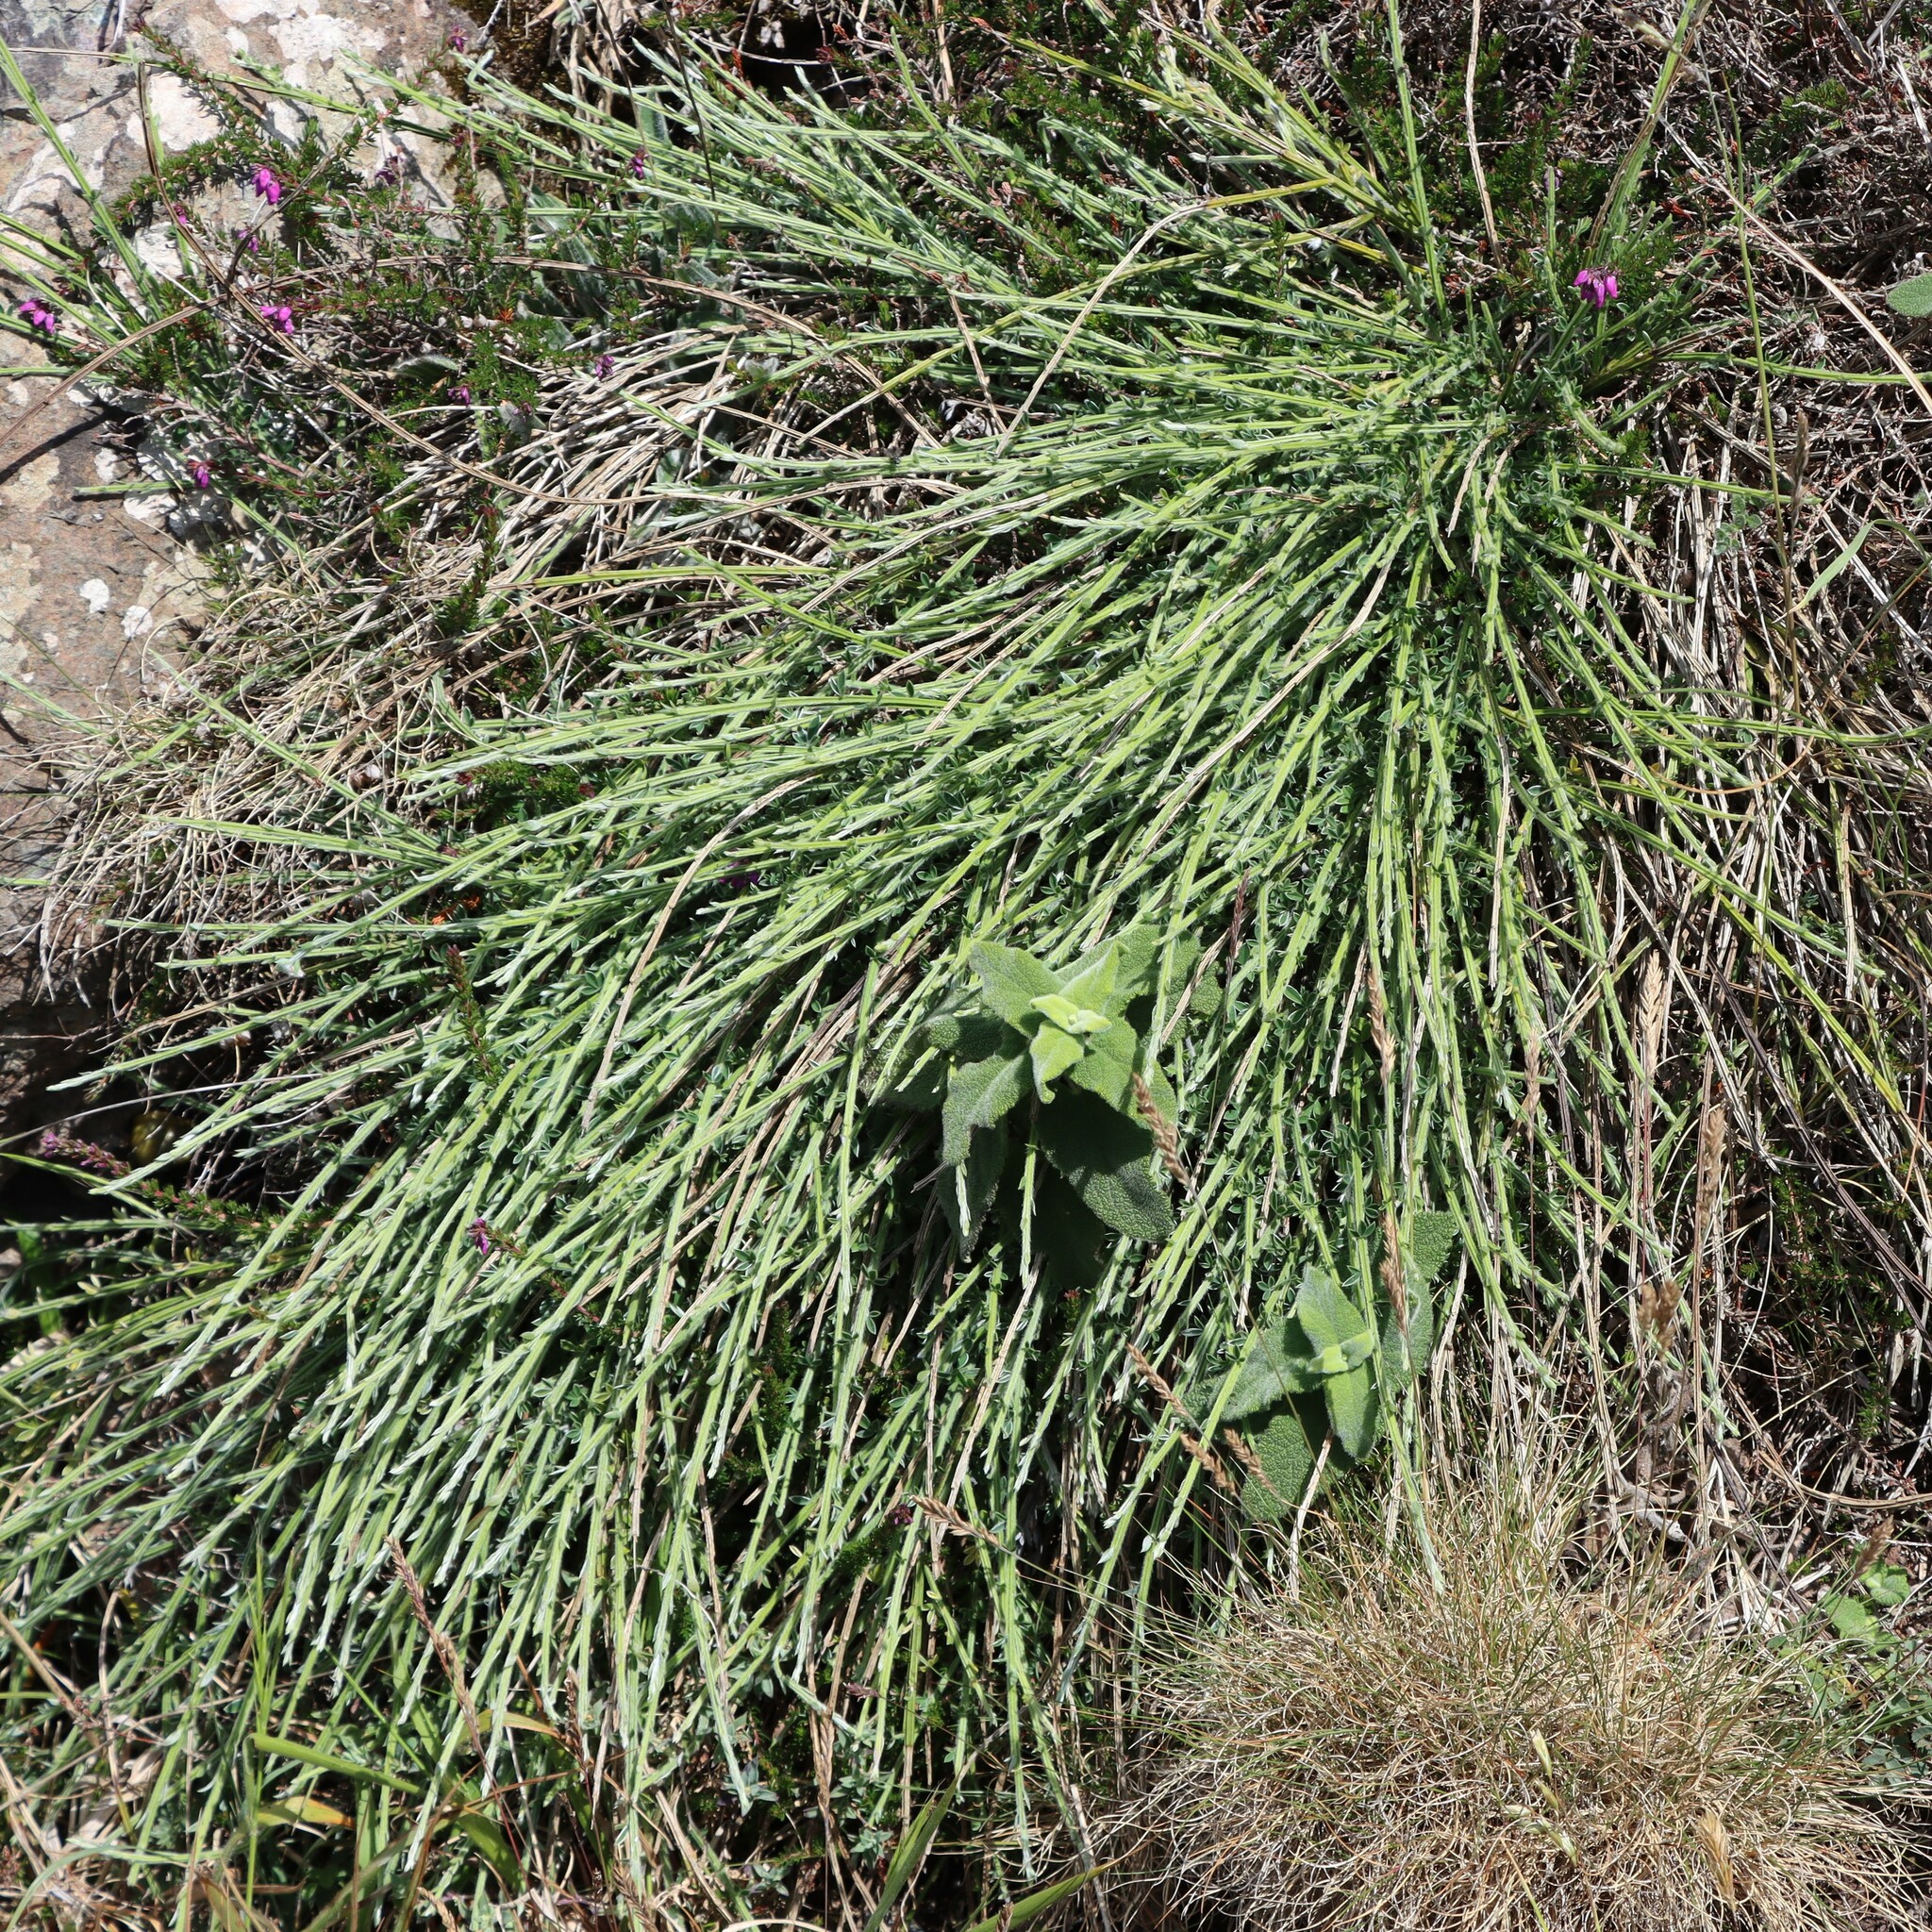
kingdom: Plantae
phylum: Tracheophyta
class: Magnoliopsida
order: Fabales
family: Fabaceae
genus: Cytisus
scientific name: Cytisus scoparius
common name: Scotch broom
